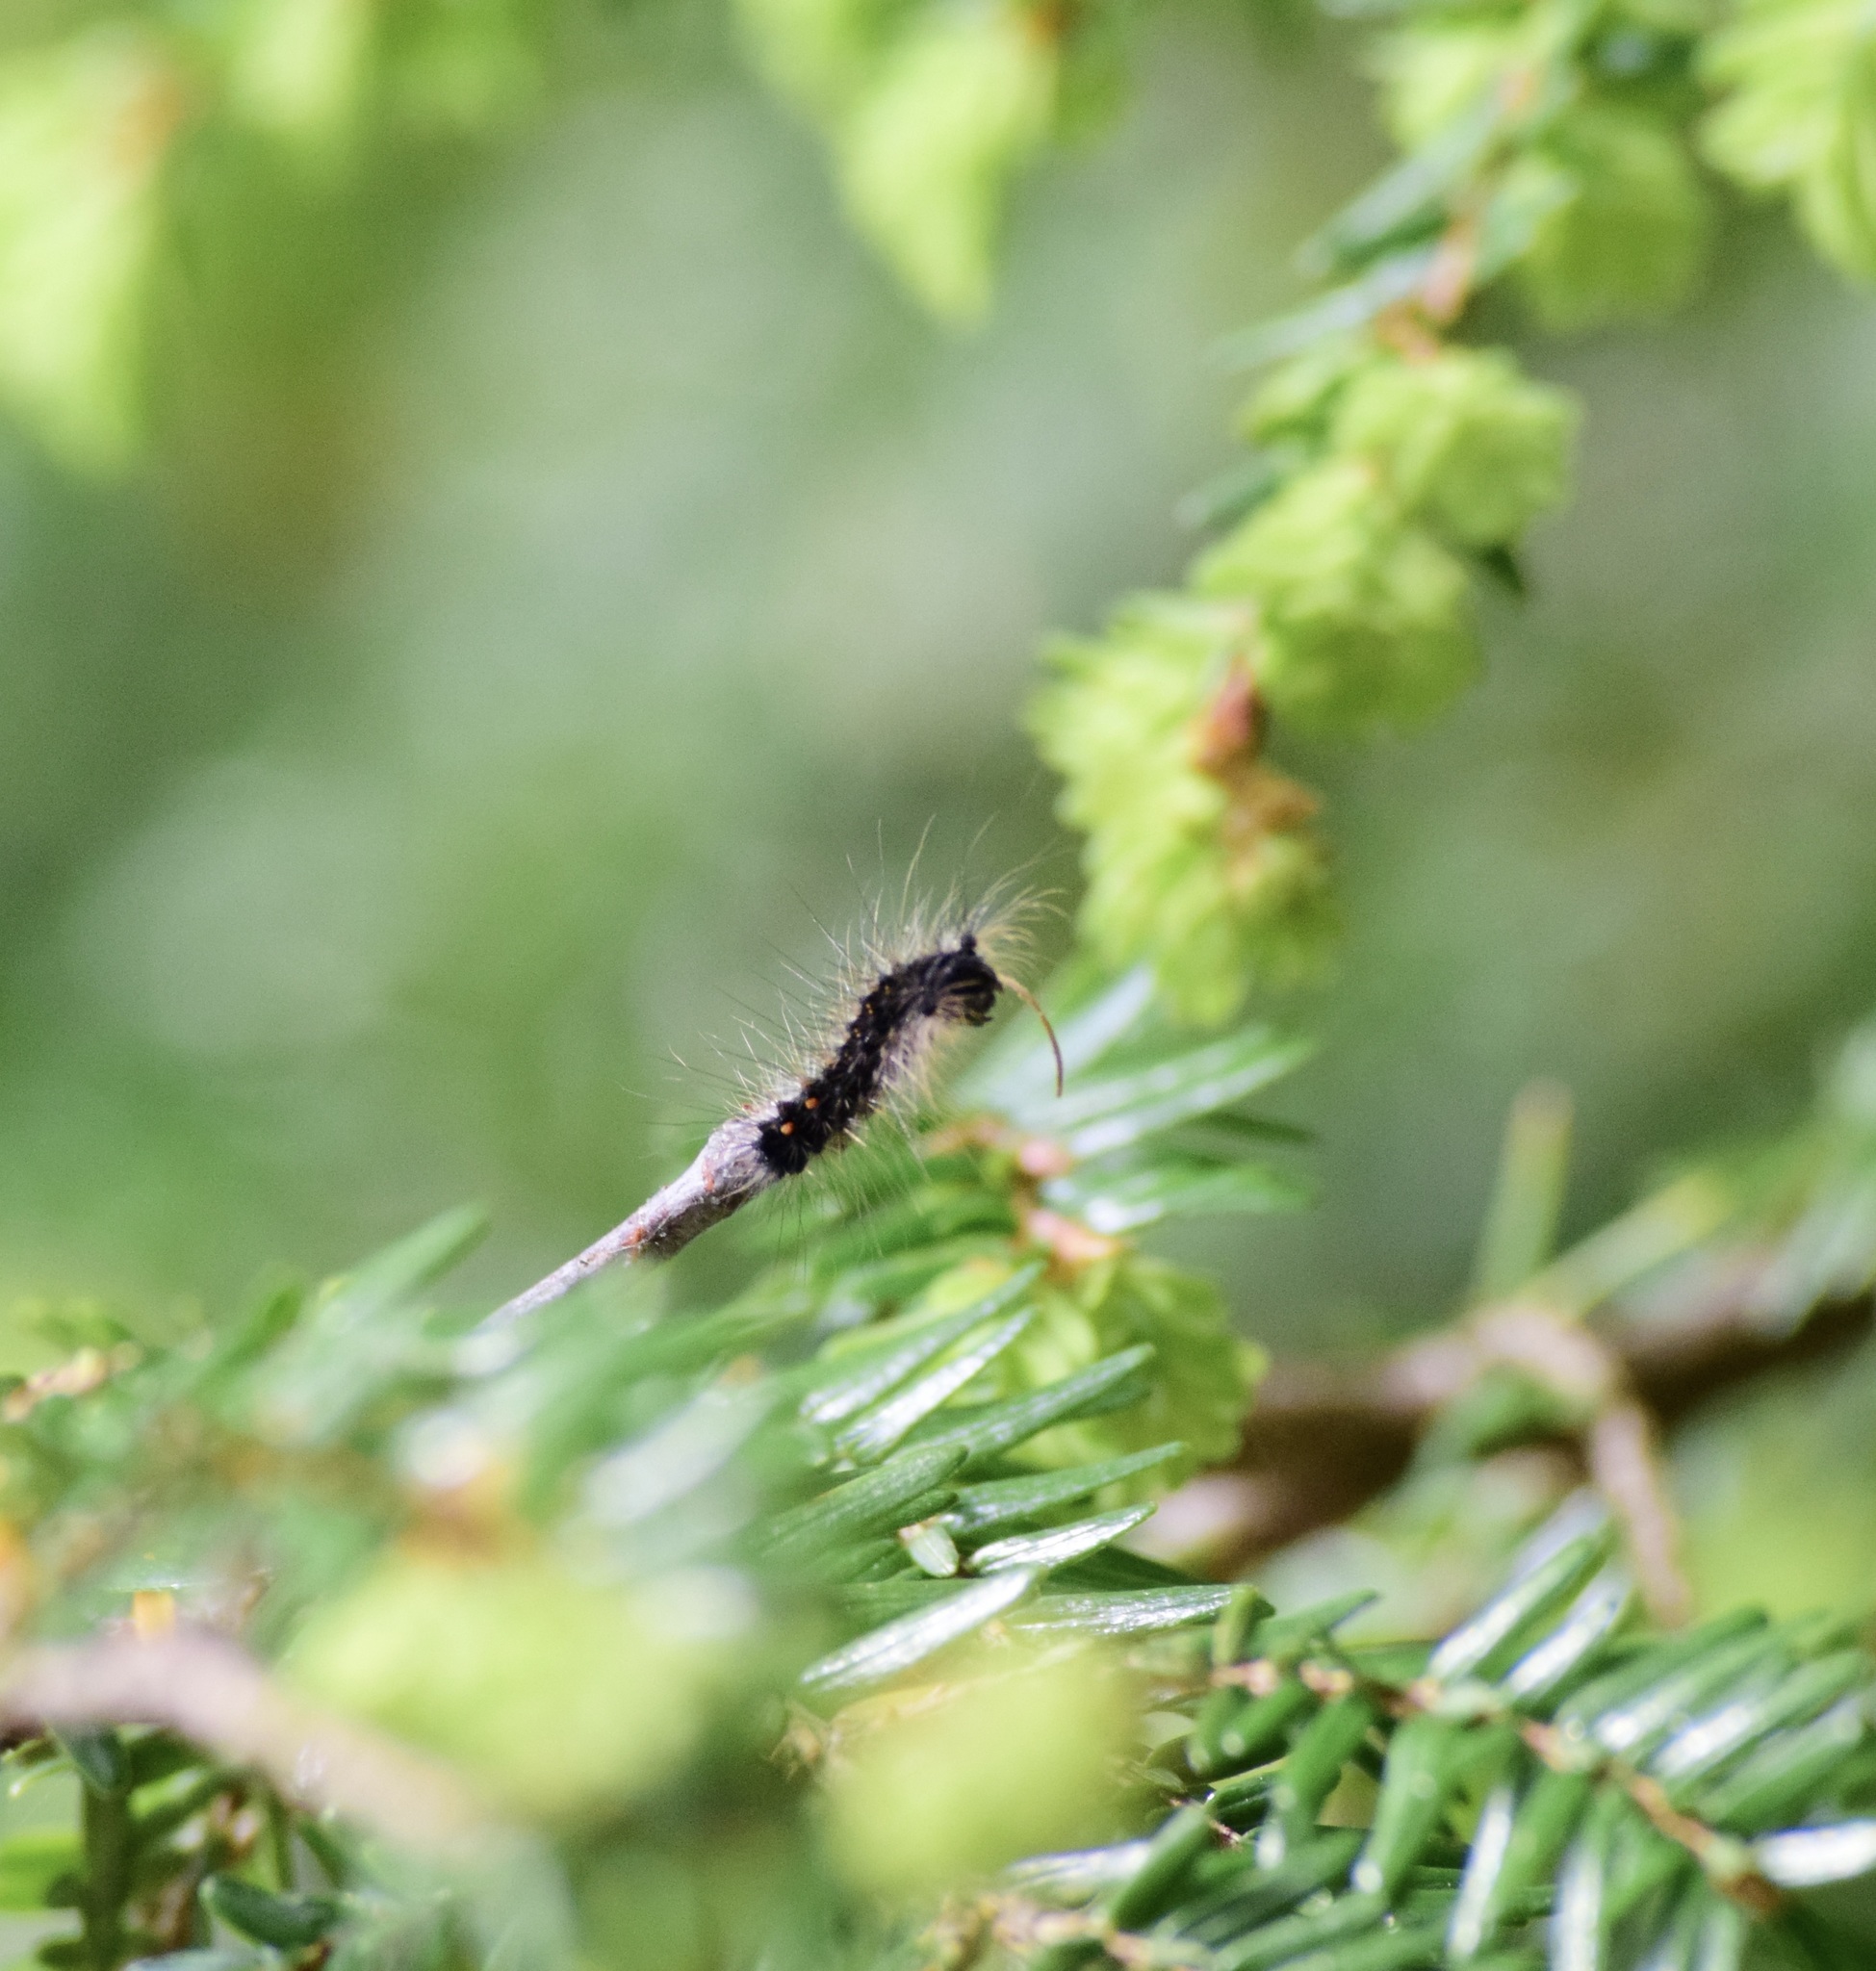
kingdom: Animalia
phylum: Arthropoda
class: Insecta
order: Lepidoptera
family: Erebidae
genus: Lymantria
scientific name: Lymantria dispar
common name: Gypsy moth
